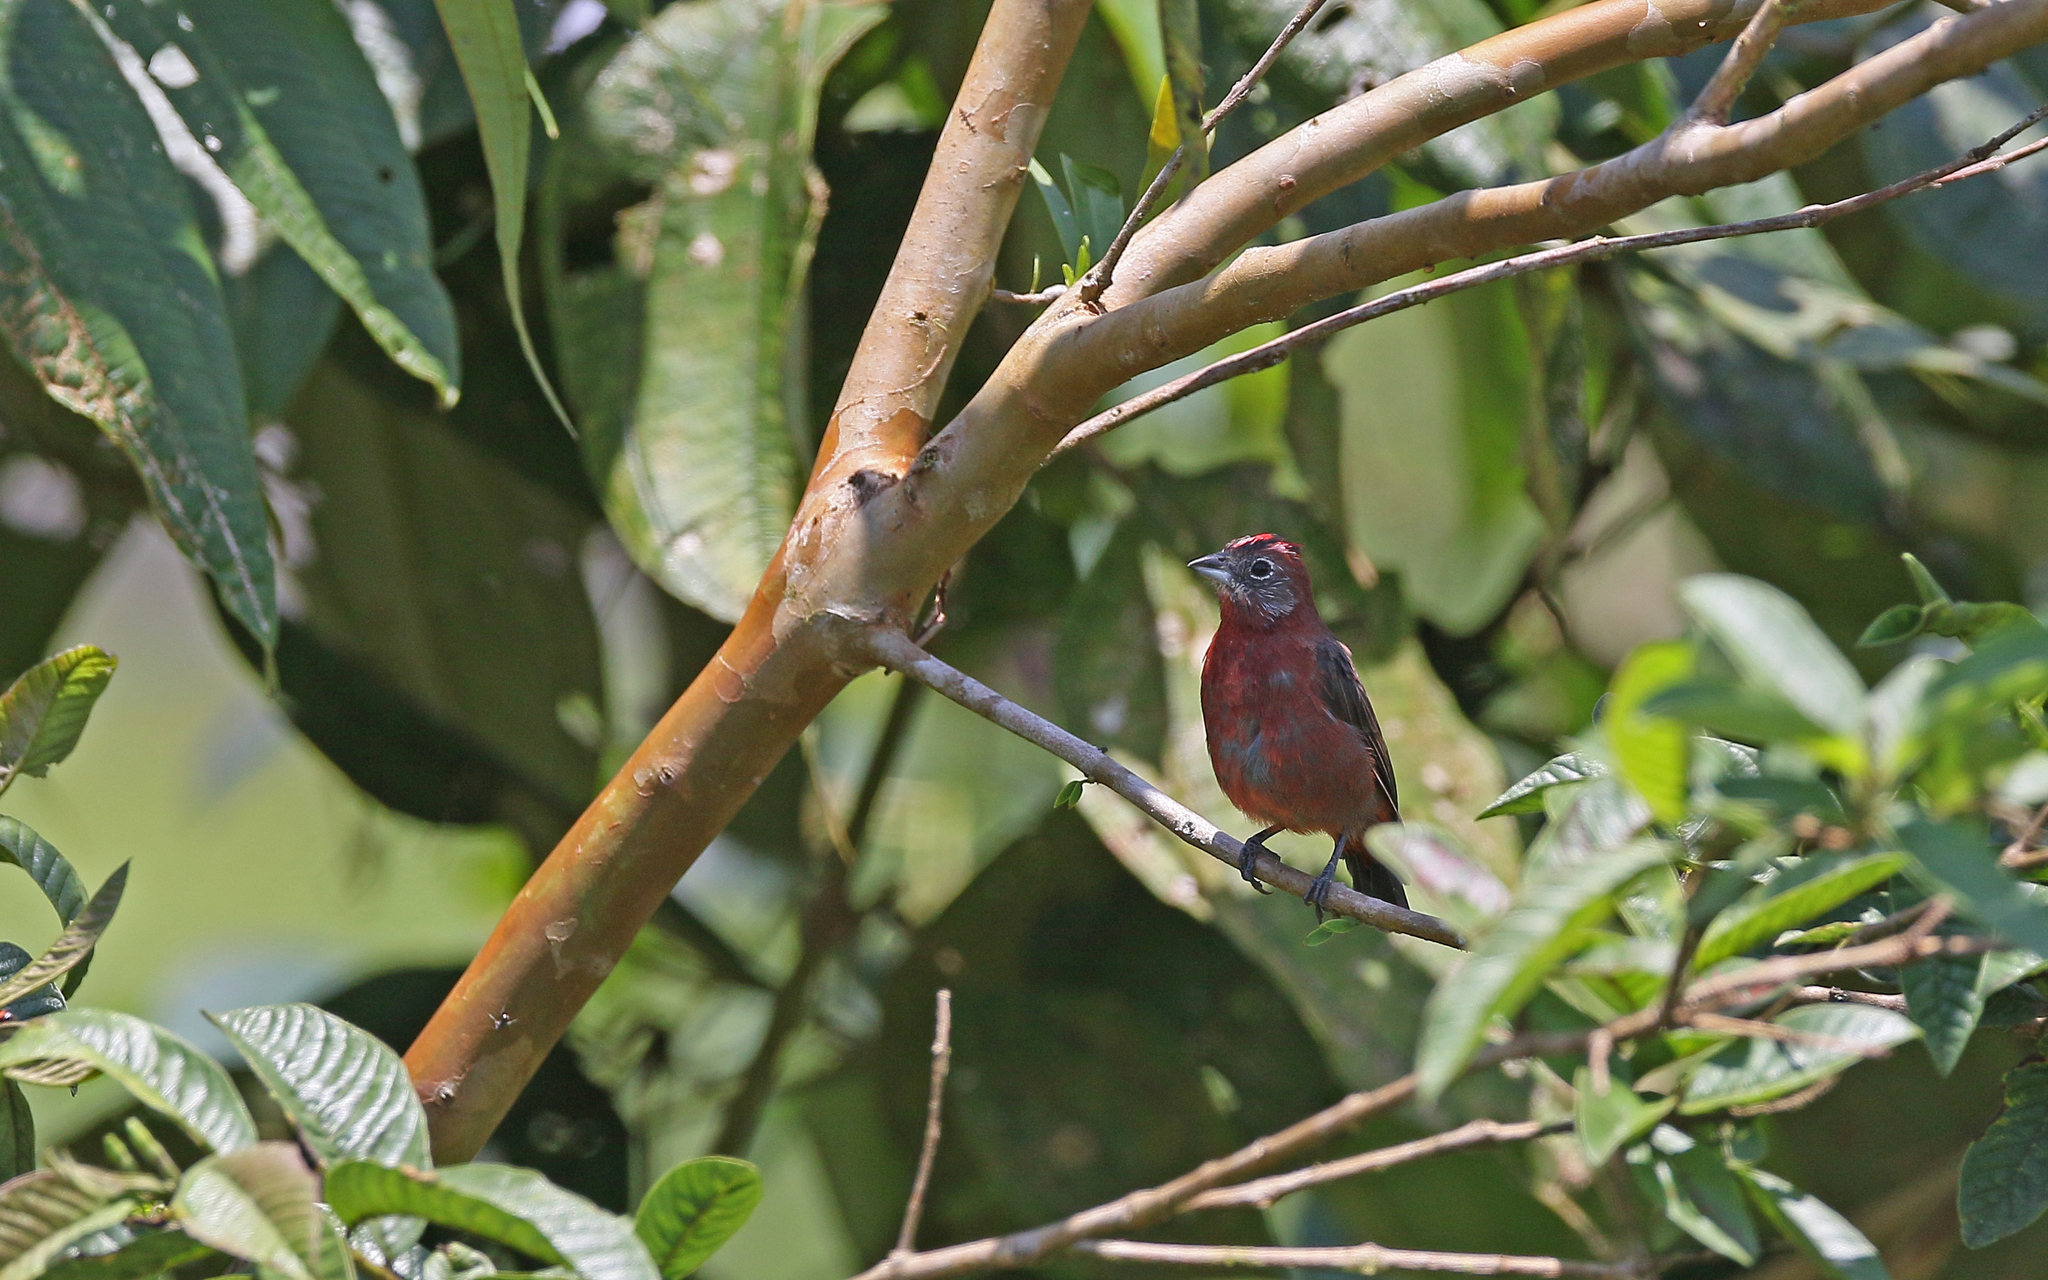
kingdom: Animalia
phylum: Chordata
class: Aves
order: Passeriformes
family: Thraupidae
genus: Coryphospingus
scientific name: Coryphospingus cucullatus
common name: Red pileated finch
